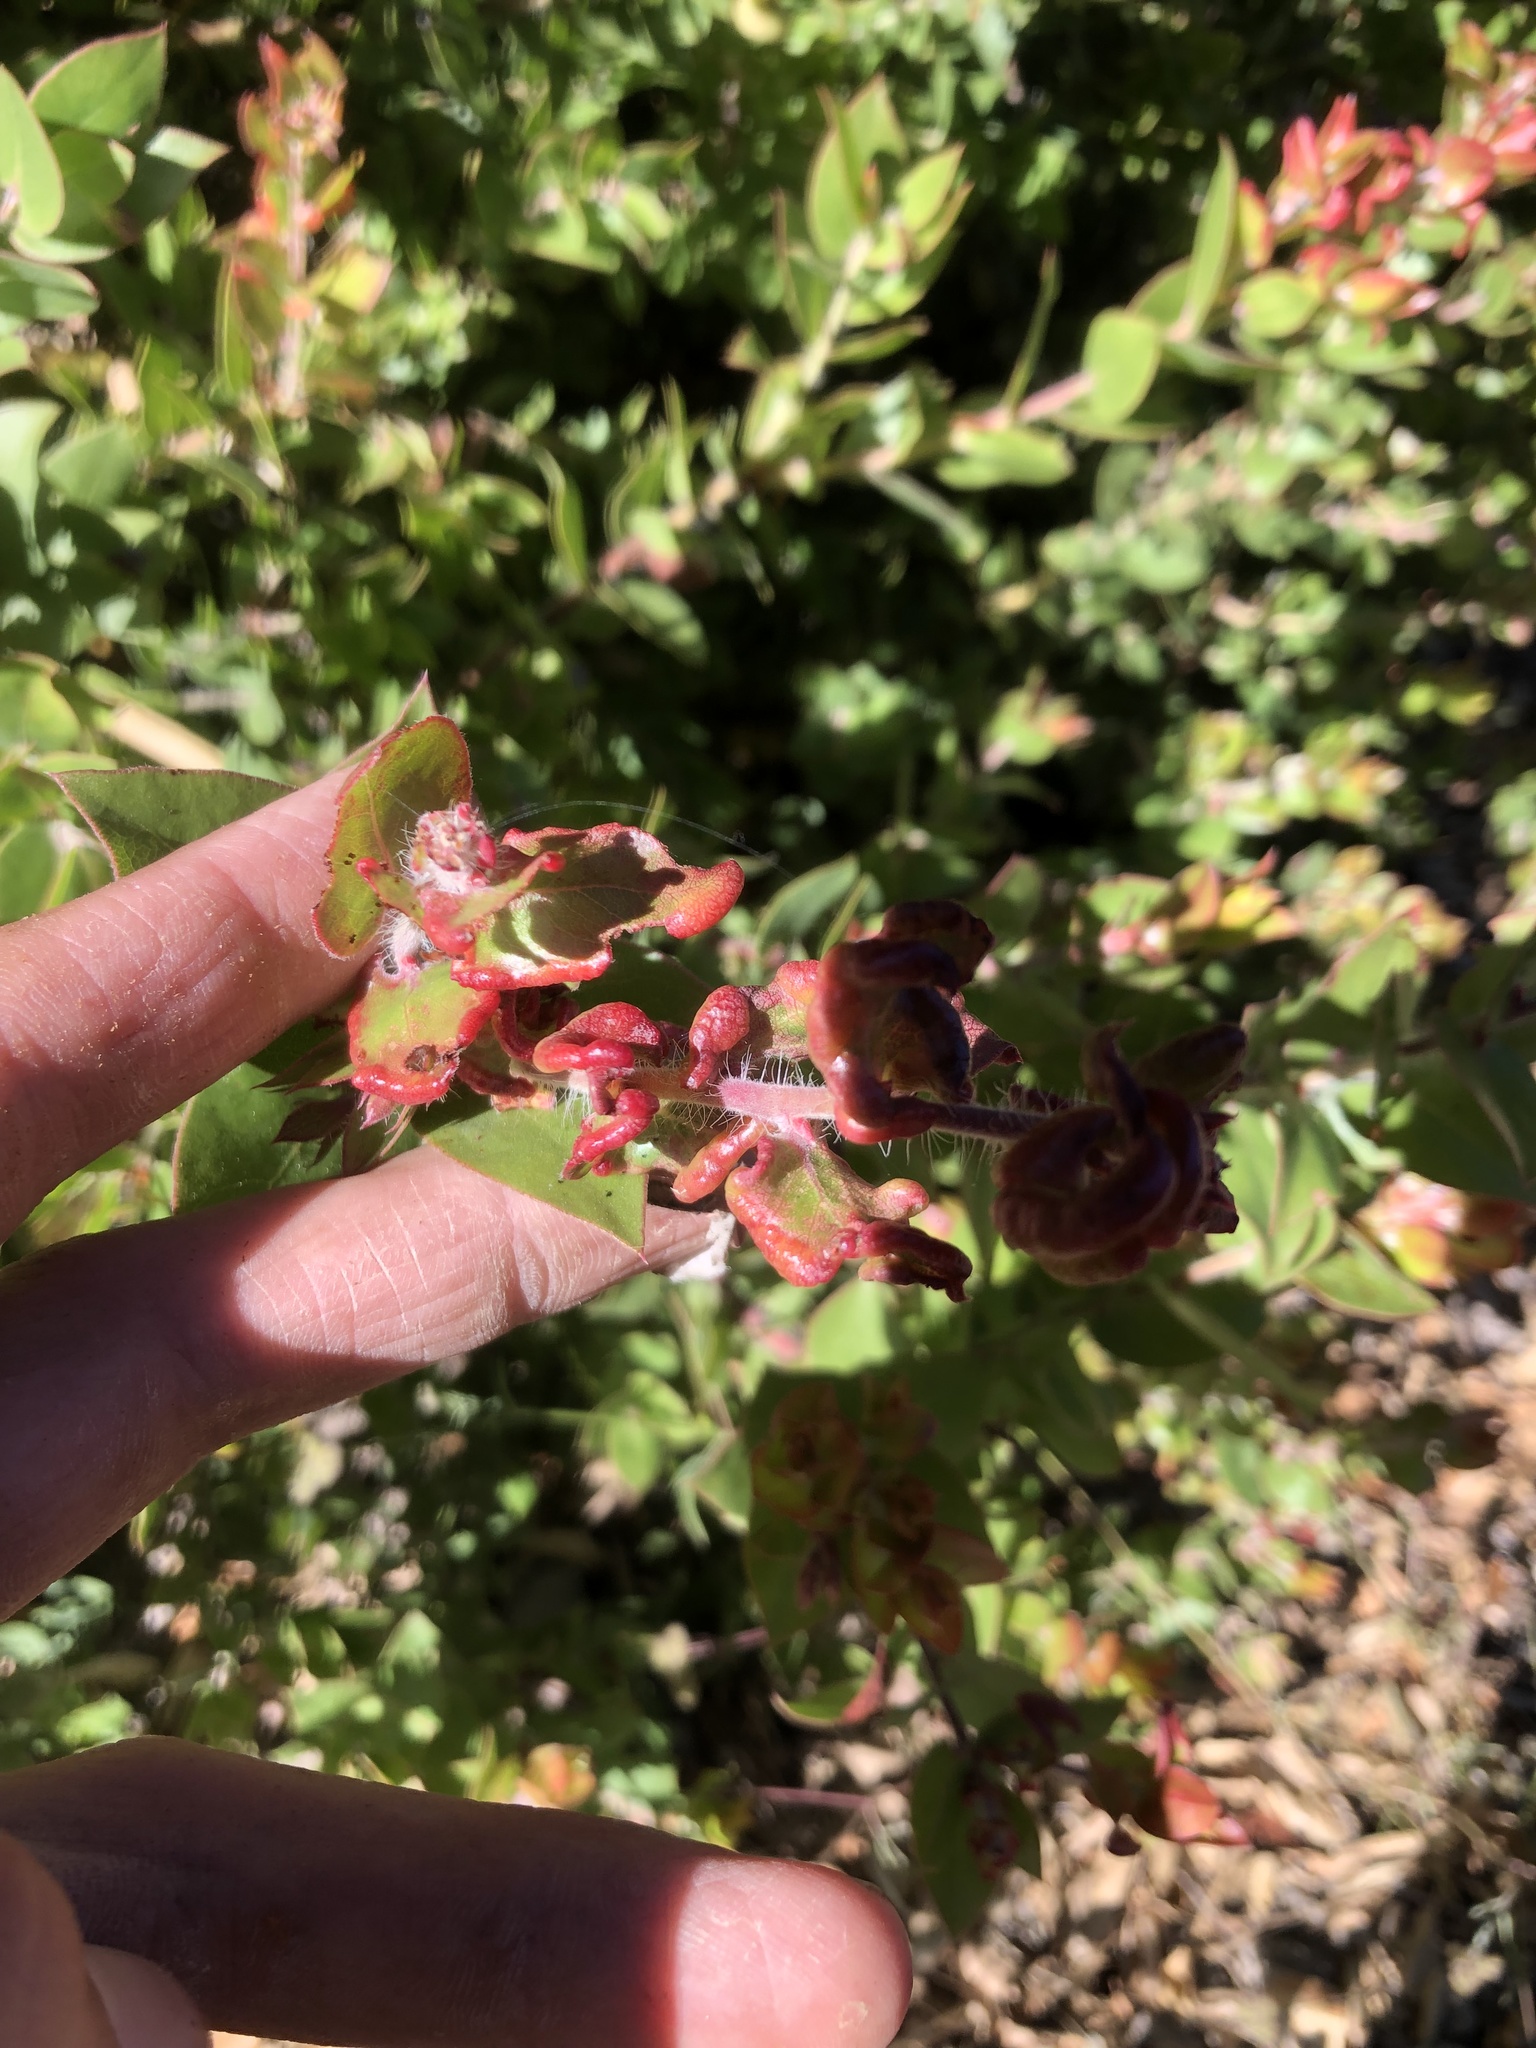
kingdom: Animalia
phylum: Arthropoda
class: Insecta
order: Hemiptera
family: Aphididae
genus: Tamalia
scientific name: Tamalia coweni
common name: Manzanita leafgall aphid
